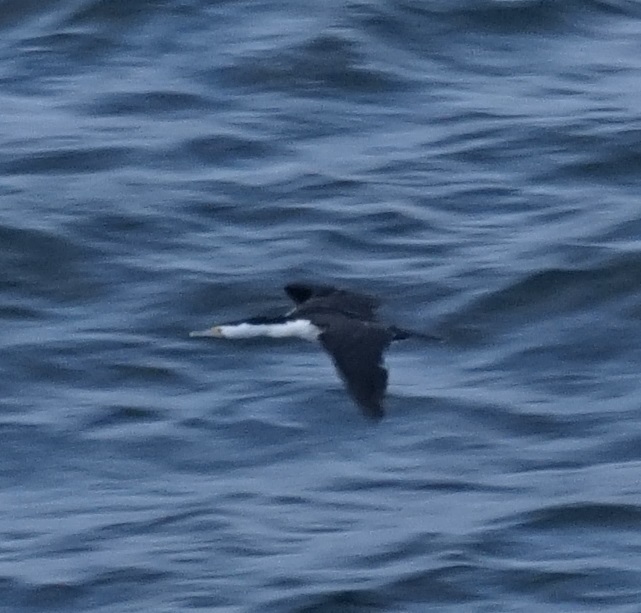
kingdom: Animalia
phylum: Chordata
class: Aves
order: Suliformes
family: Phalacrocoracidae
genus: Phalacrocorax
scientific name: Phalacrocorax varius
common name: Pied cormorant
